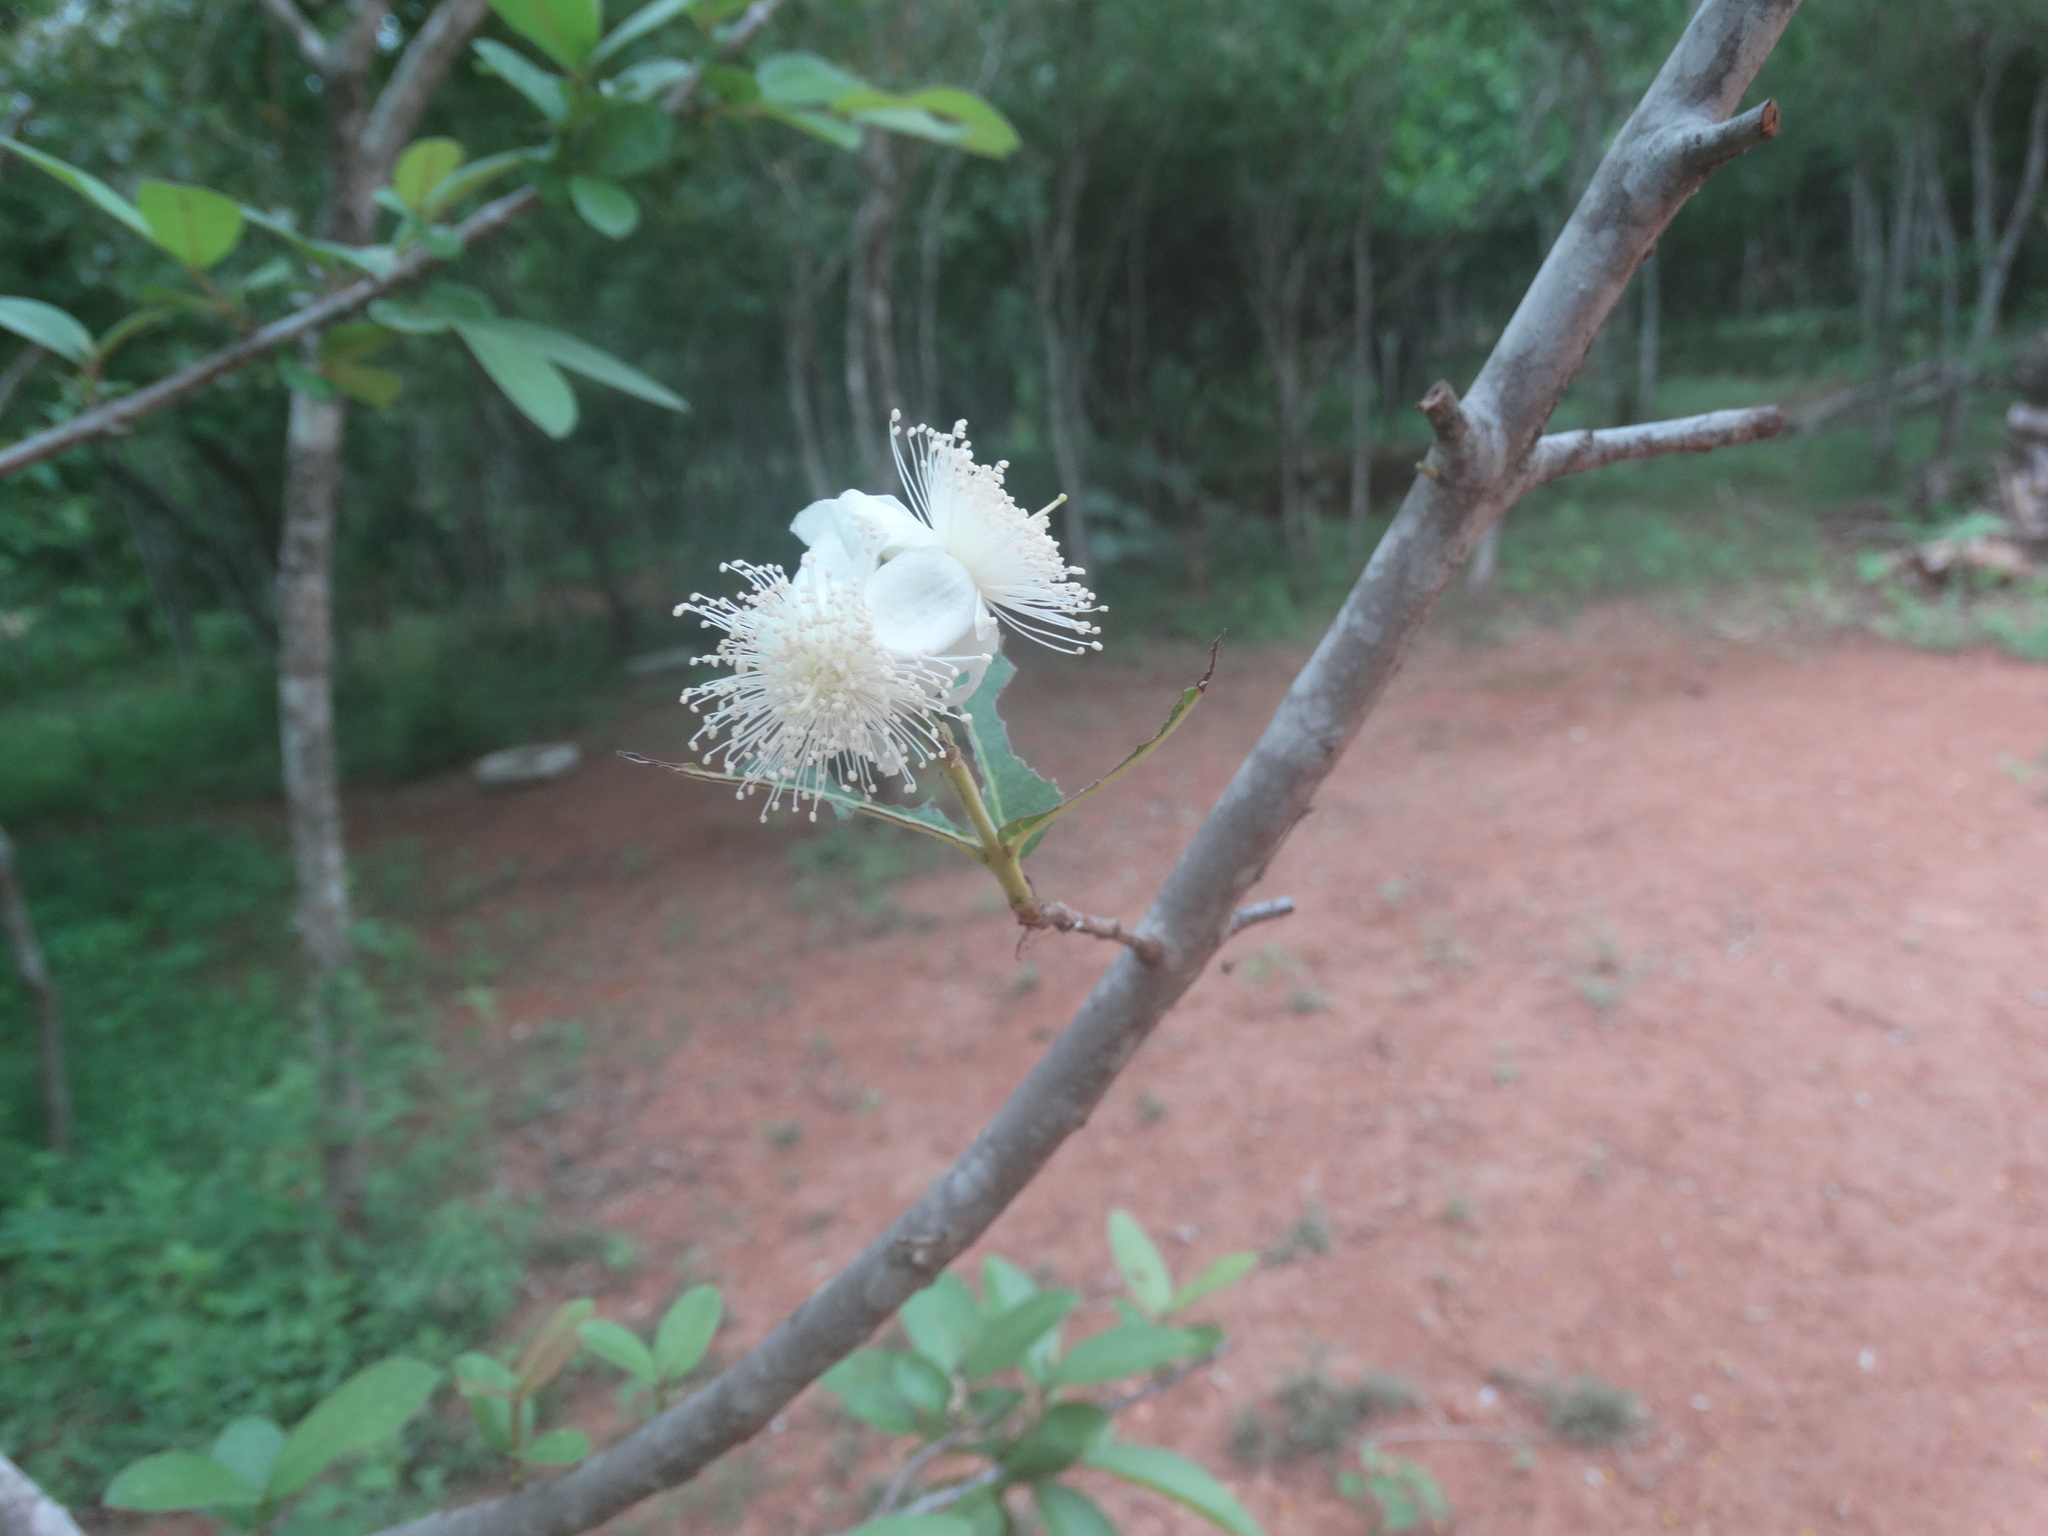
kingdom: Plantae
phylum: Tracheophyta
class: Magnoliopsida
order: Myrtales
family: Myrtaceae
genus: Psidium
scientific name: Psidium guajava
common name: Guava
